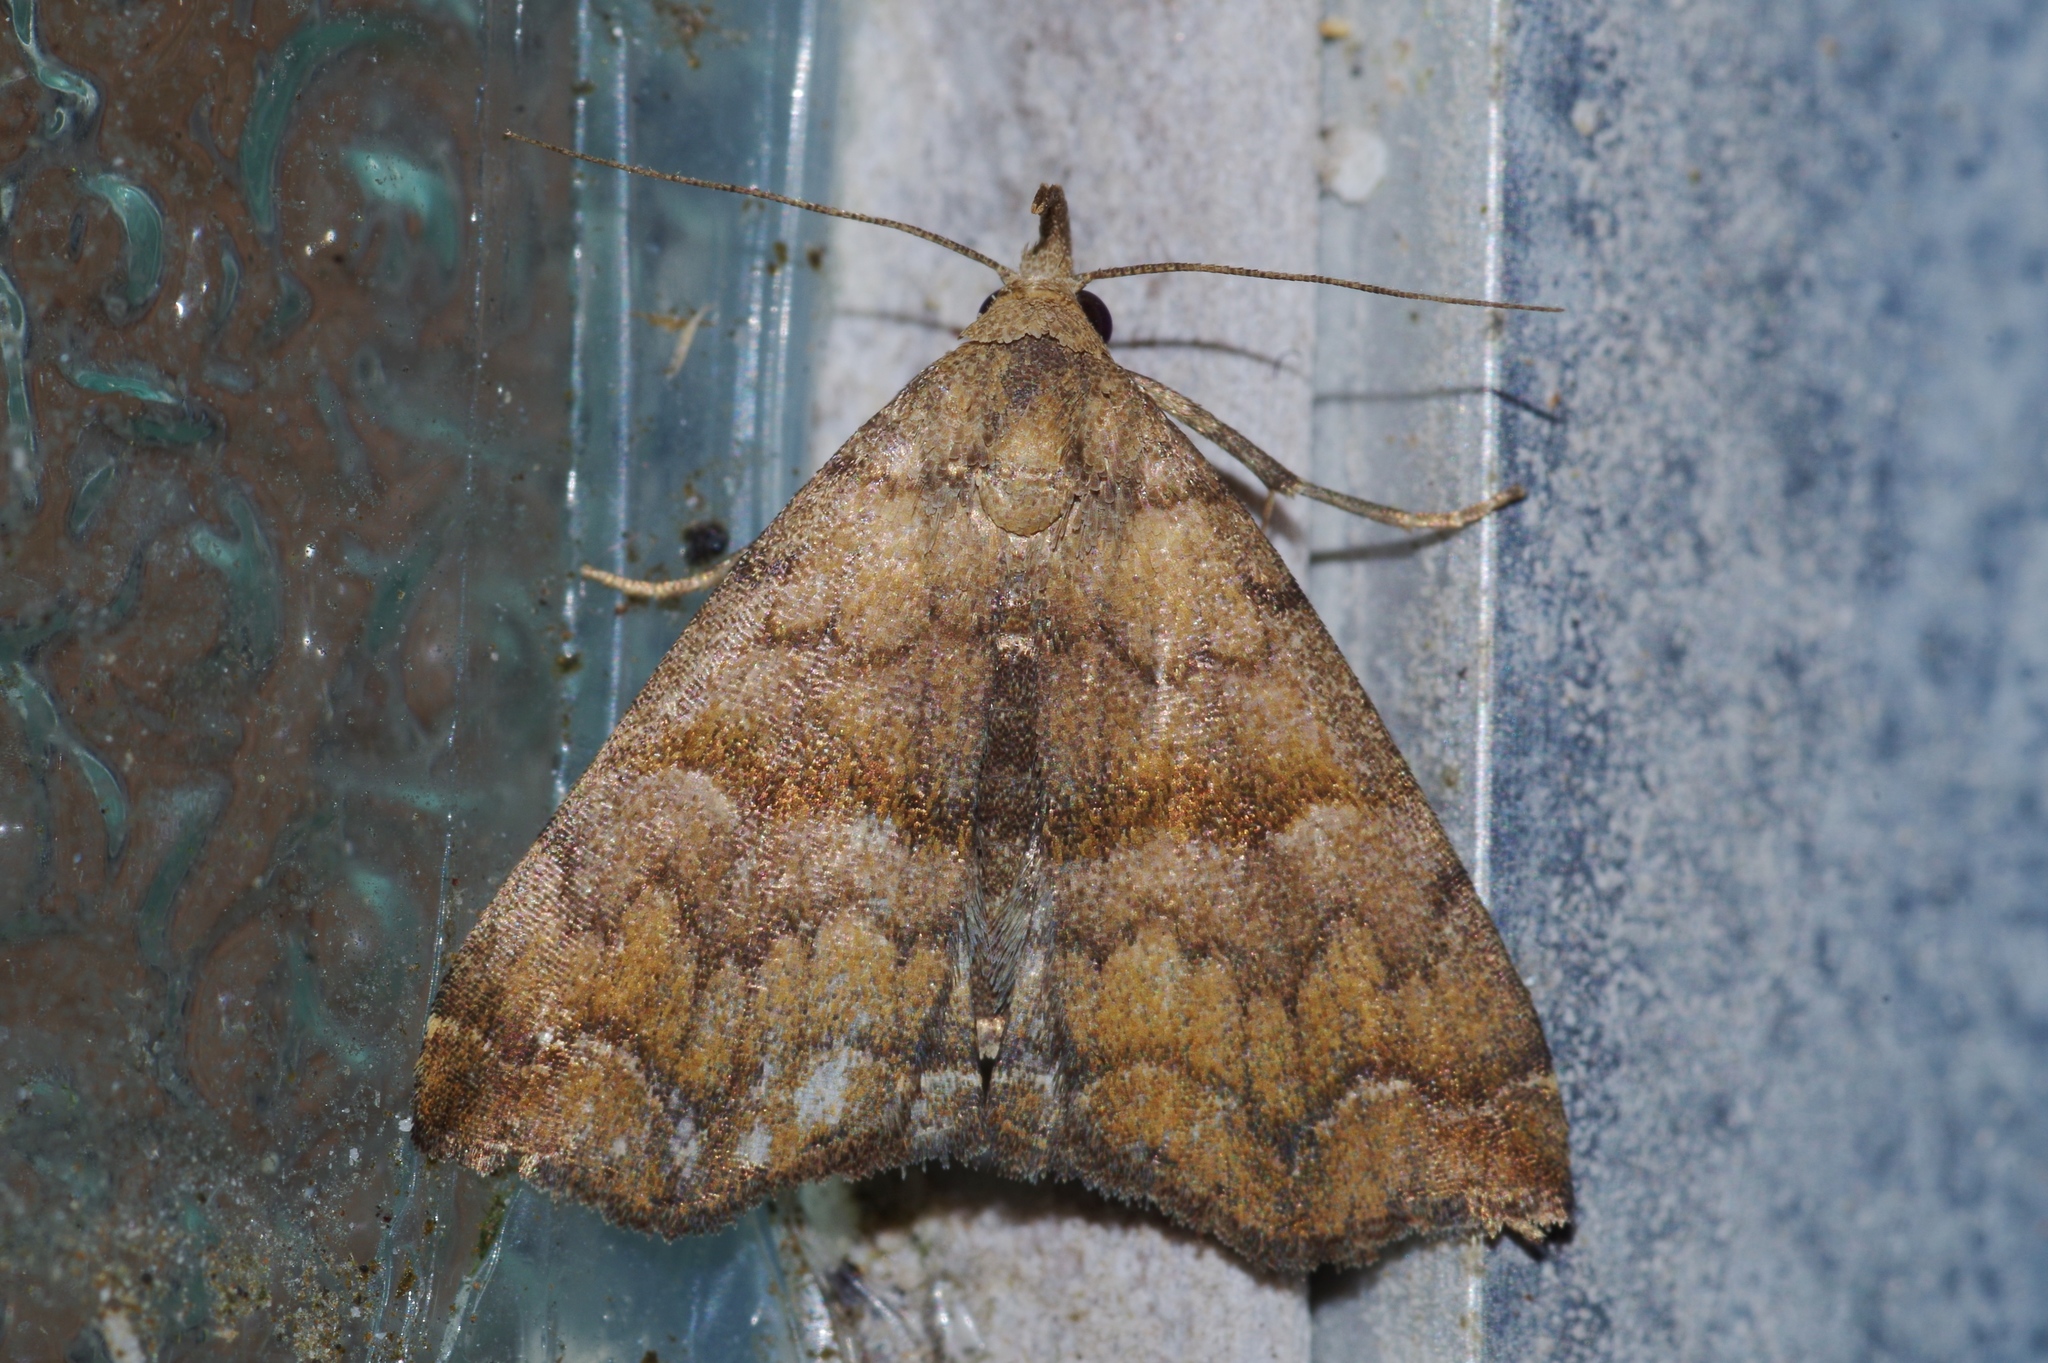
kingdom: Animalia
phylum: Arthropoda
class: Insecta
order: Lepidoptera
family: Erebidae
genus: Polypogon
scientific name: Polypogon Hipoepa fractalis
